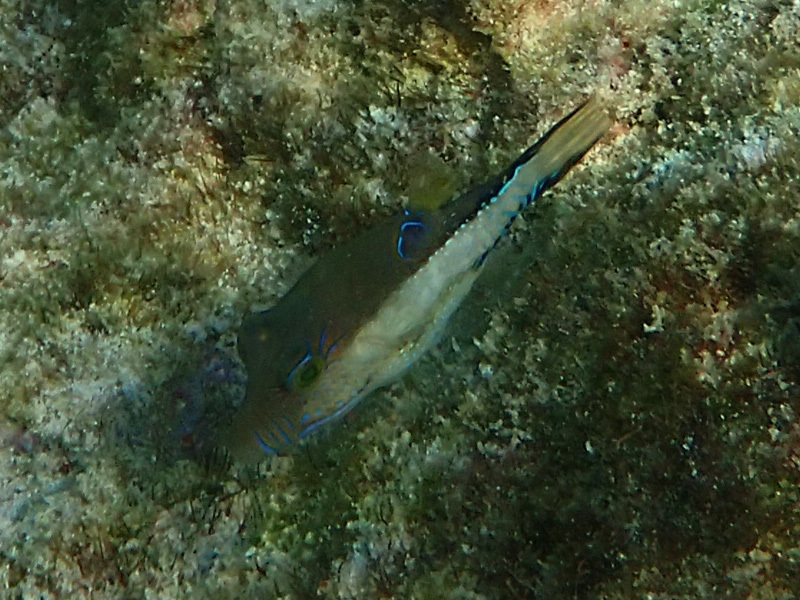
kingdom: Animalia
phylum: Chordata
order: Tetraodontiformes
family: Tetraodontidae
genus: Canthigaster
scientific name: Canthigaster rostrata
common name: Caribbean sharpnose-puffer
